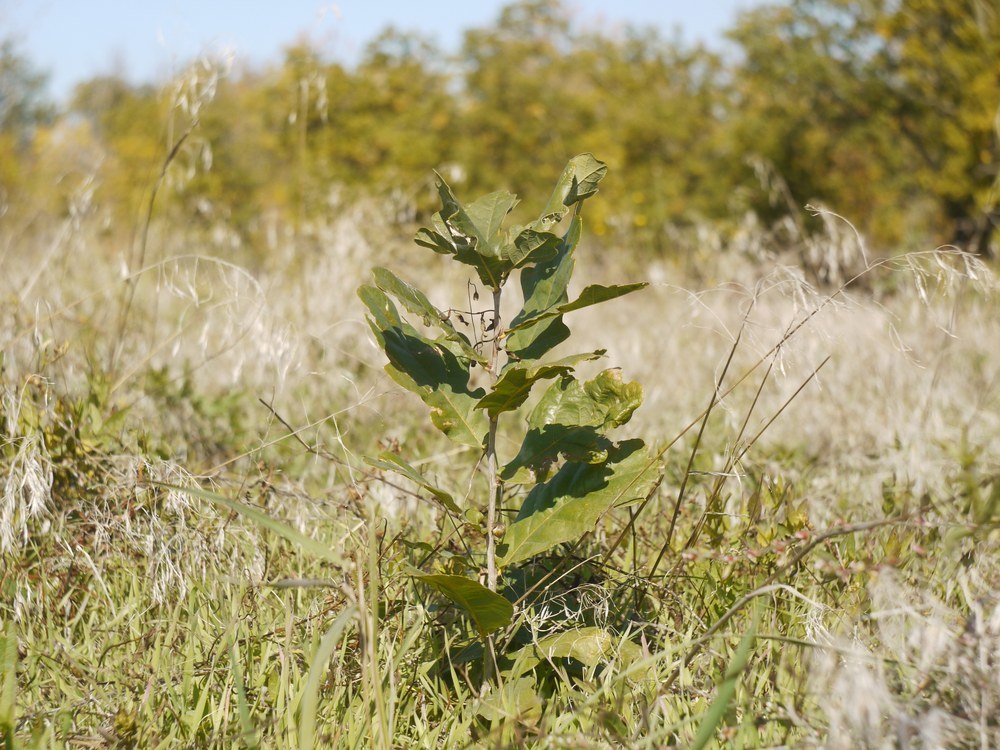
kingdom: Plantae
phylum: Tracheophyta
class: Magnoliopsida
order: Fagales
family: Fagaceae
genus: Quercus
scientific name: Quercus robur
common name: Pedunculate oak
